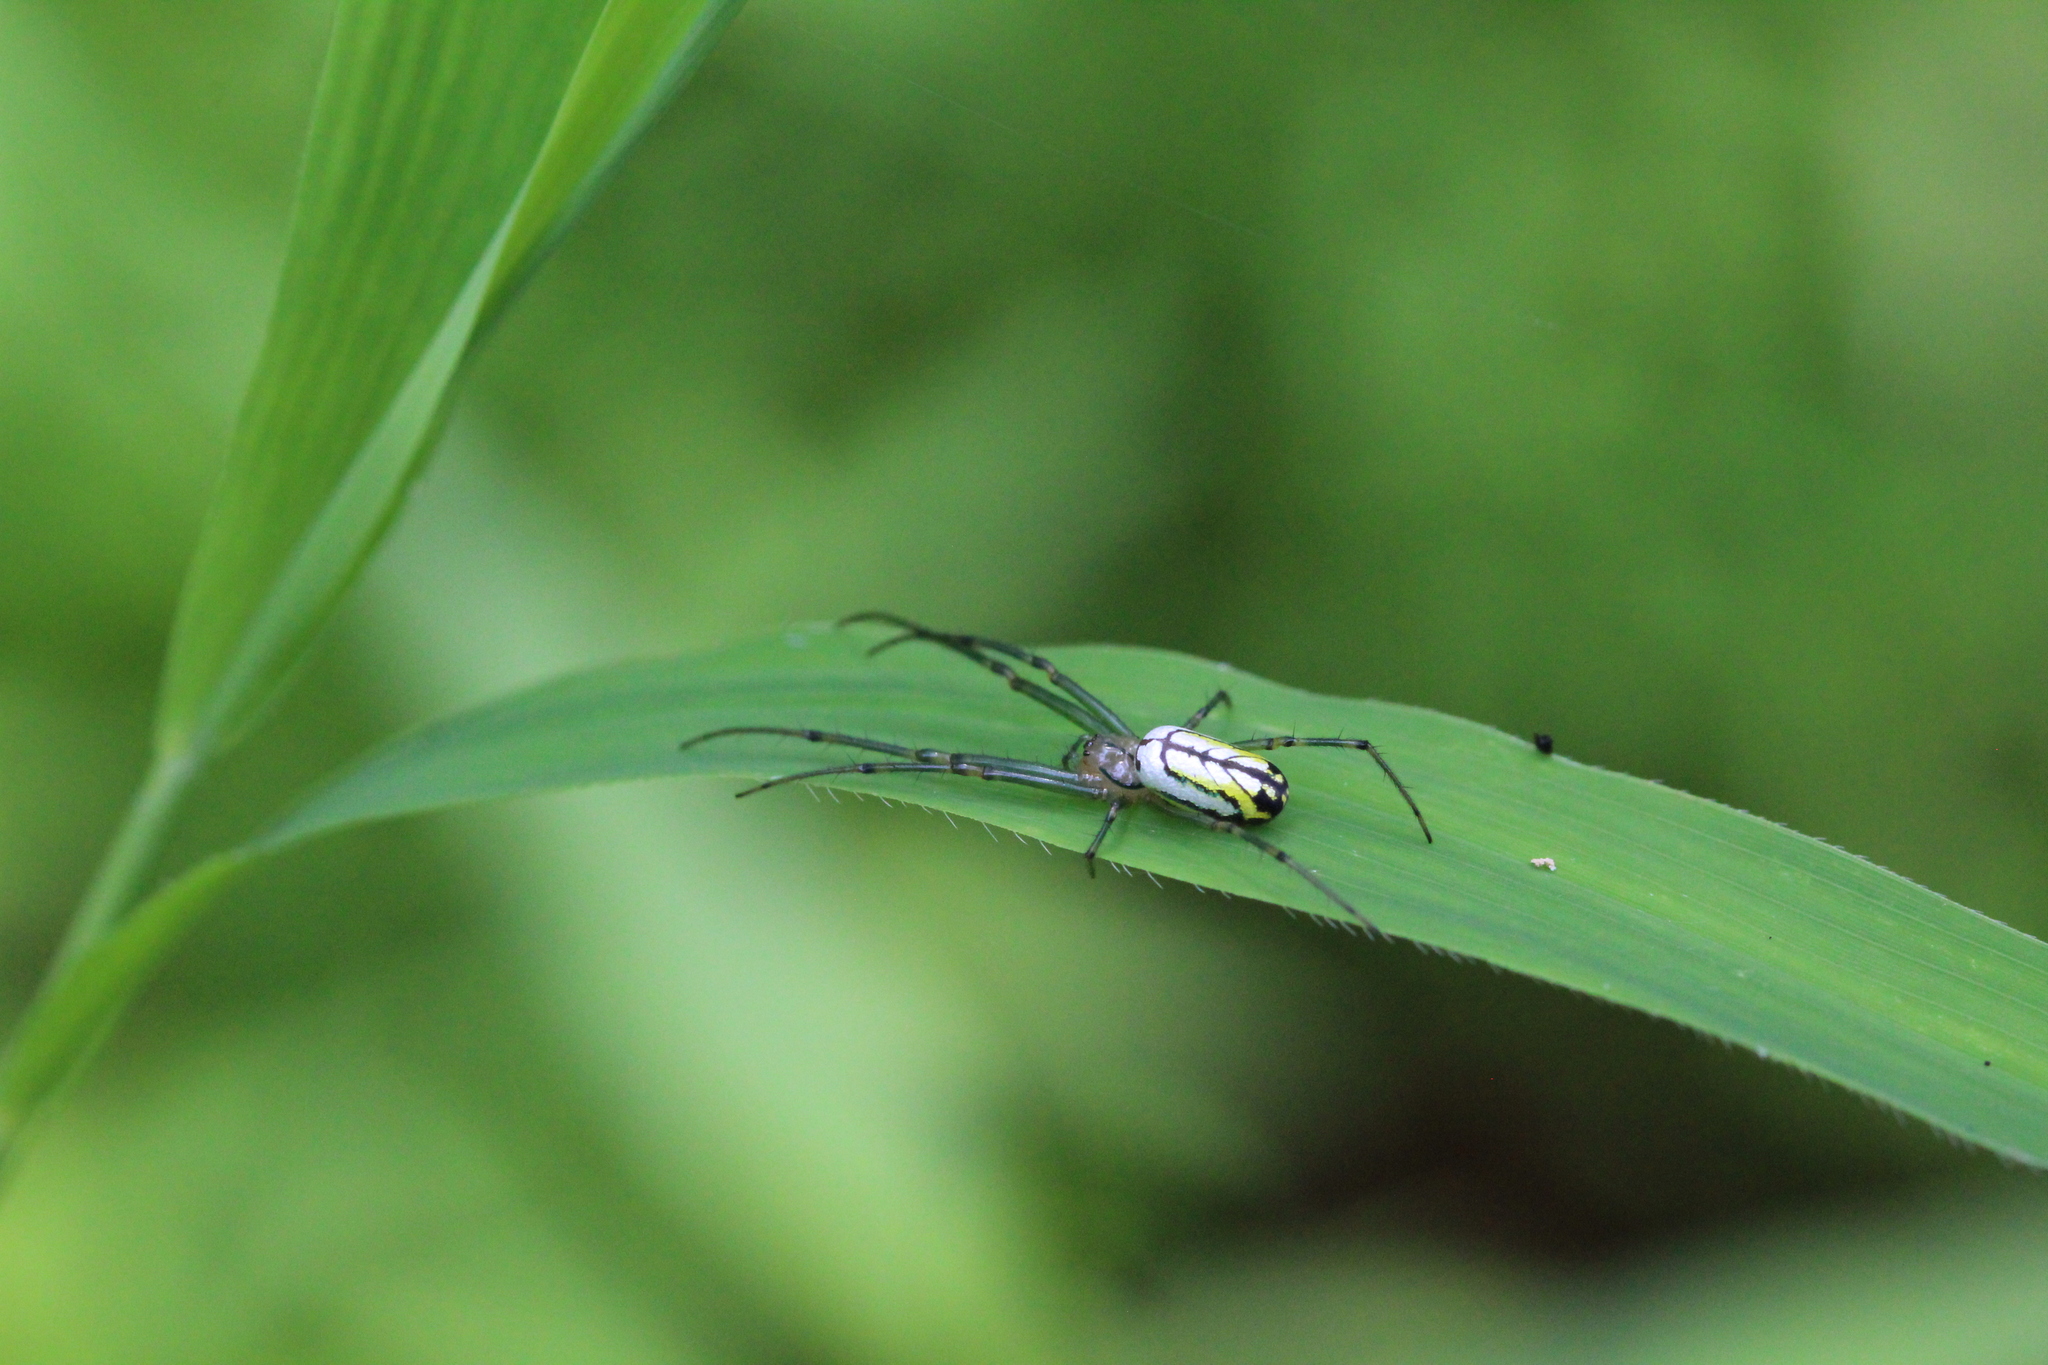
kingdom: Animalia
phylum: Arthropoda
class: Arachnida
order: Araneae
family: Tetragnathidae
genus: Leucauge
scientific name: Leucauge venusta
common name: Longjawed orb weavers
